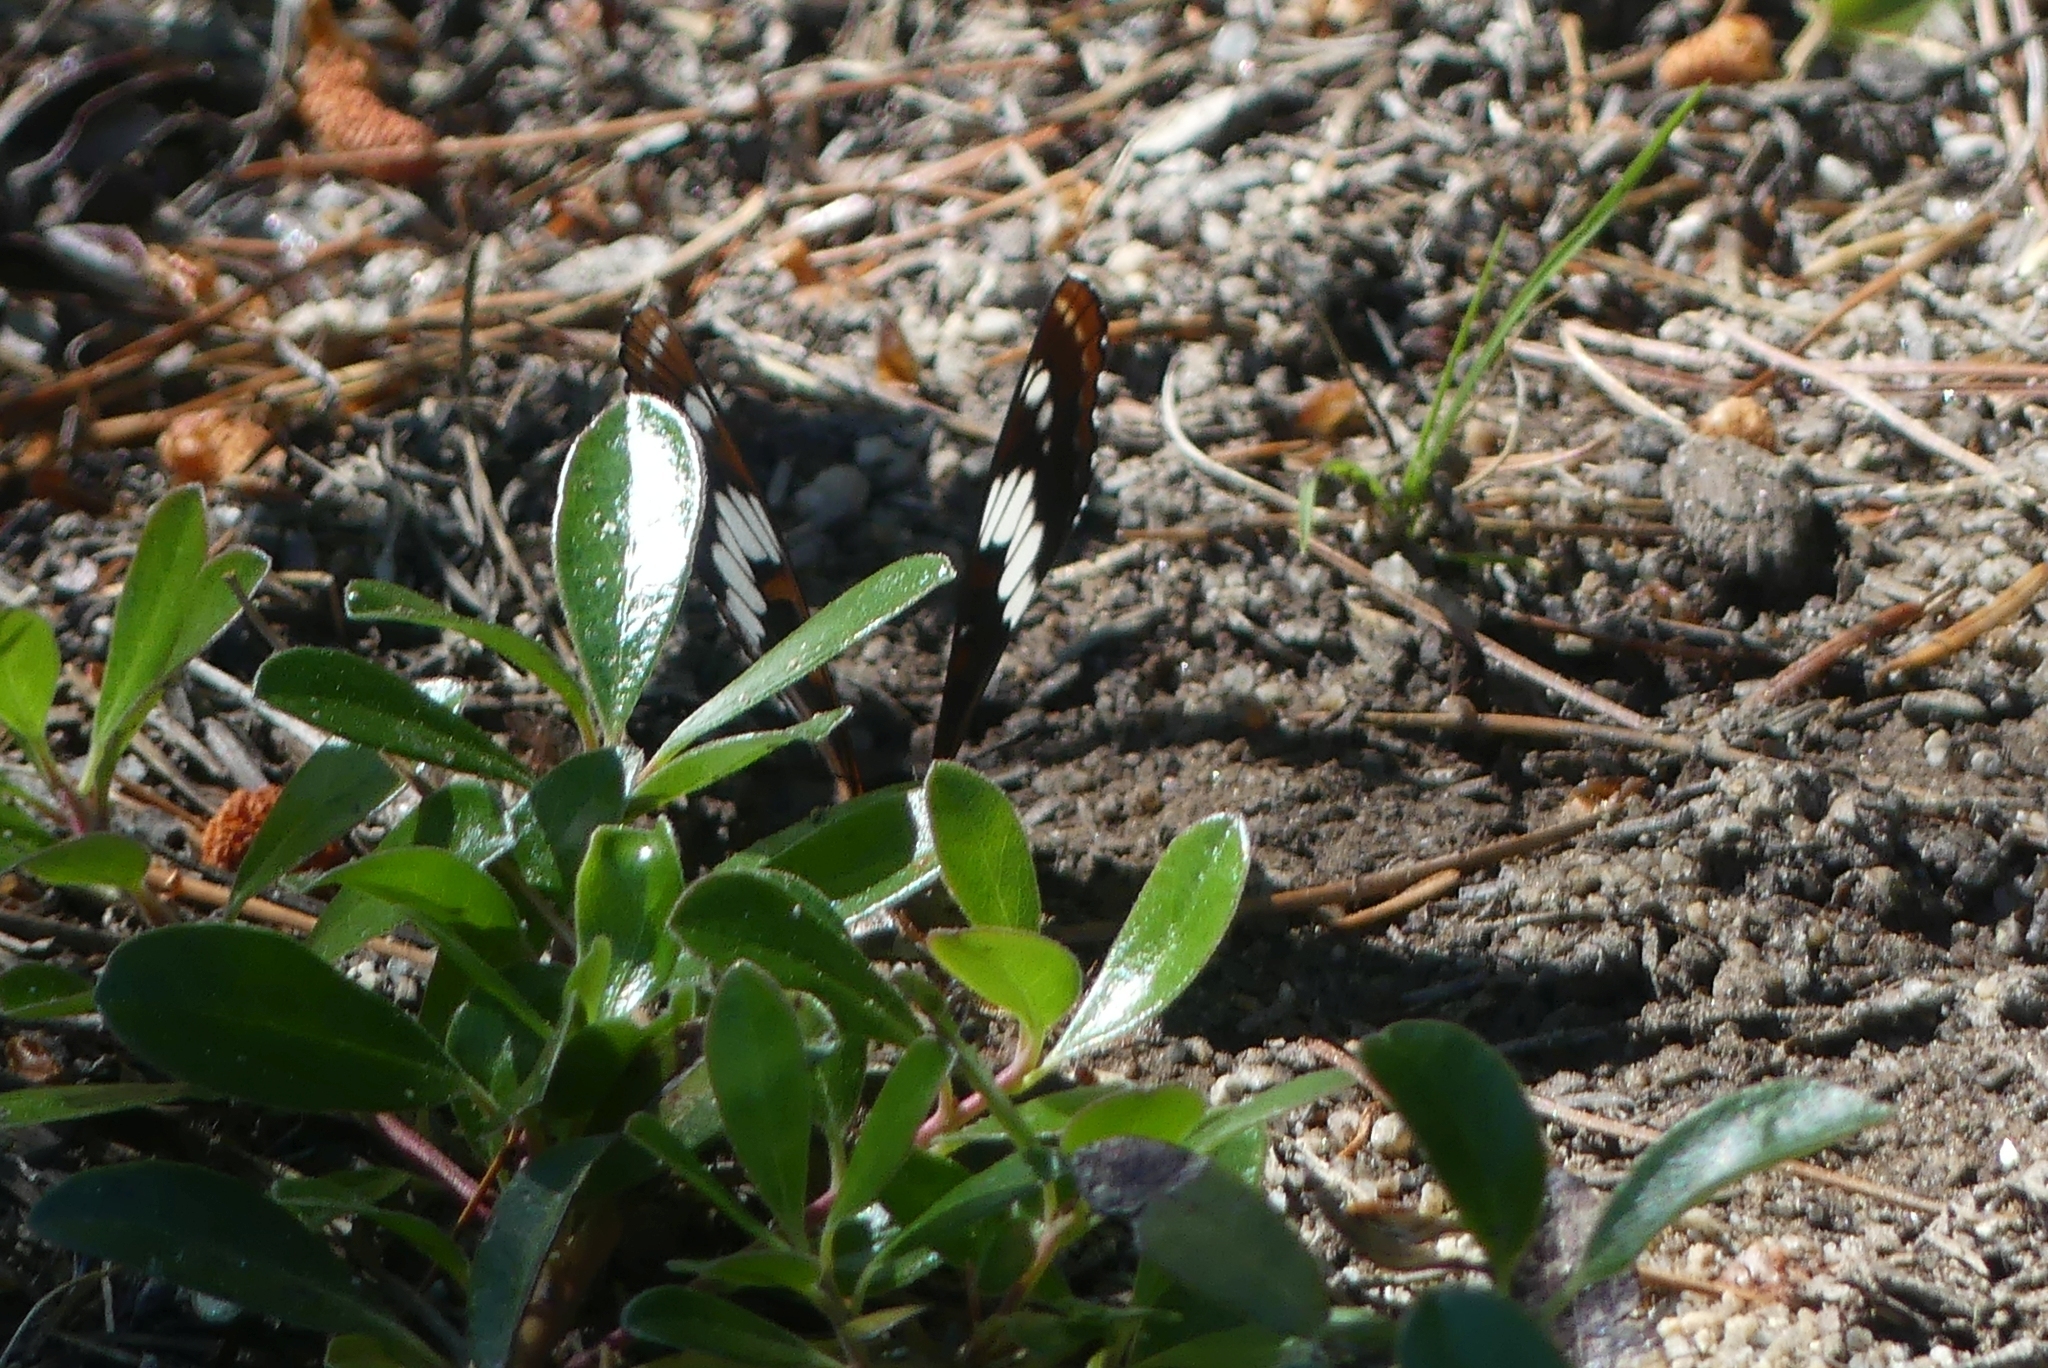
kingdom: Animalia
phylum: Arthropoda
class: Insecta
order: Lepidoptera
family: Nymphalidae
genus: Limenitis
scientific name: Limenitis lorquini
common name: Lorquin's admiral
